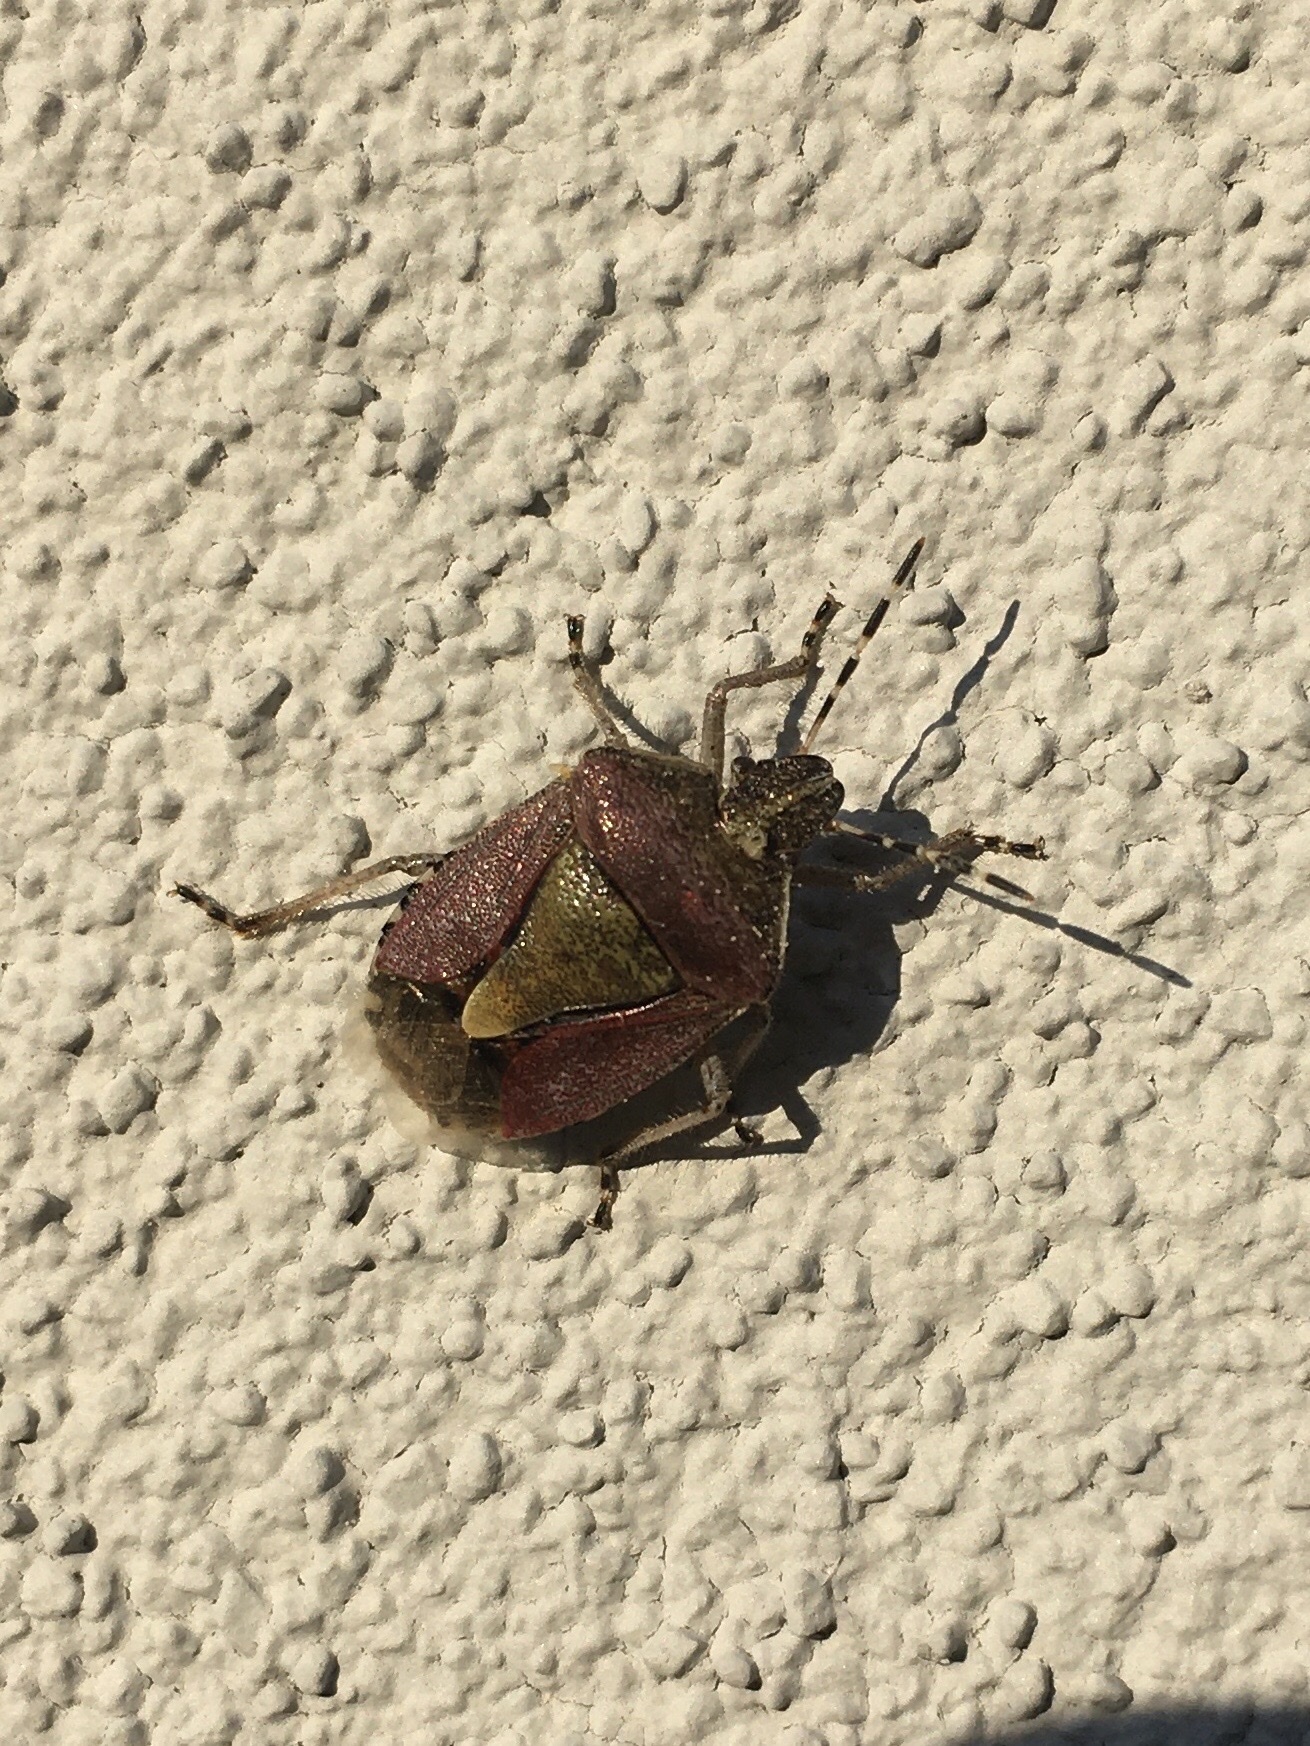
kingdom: Animalia
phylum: Arthropoda
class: Insecta
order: Hemiptera
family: Pentatomidae
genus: Dolycoris
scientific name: Dolycoris baccarum
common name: Sloe bug
